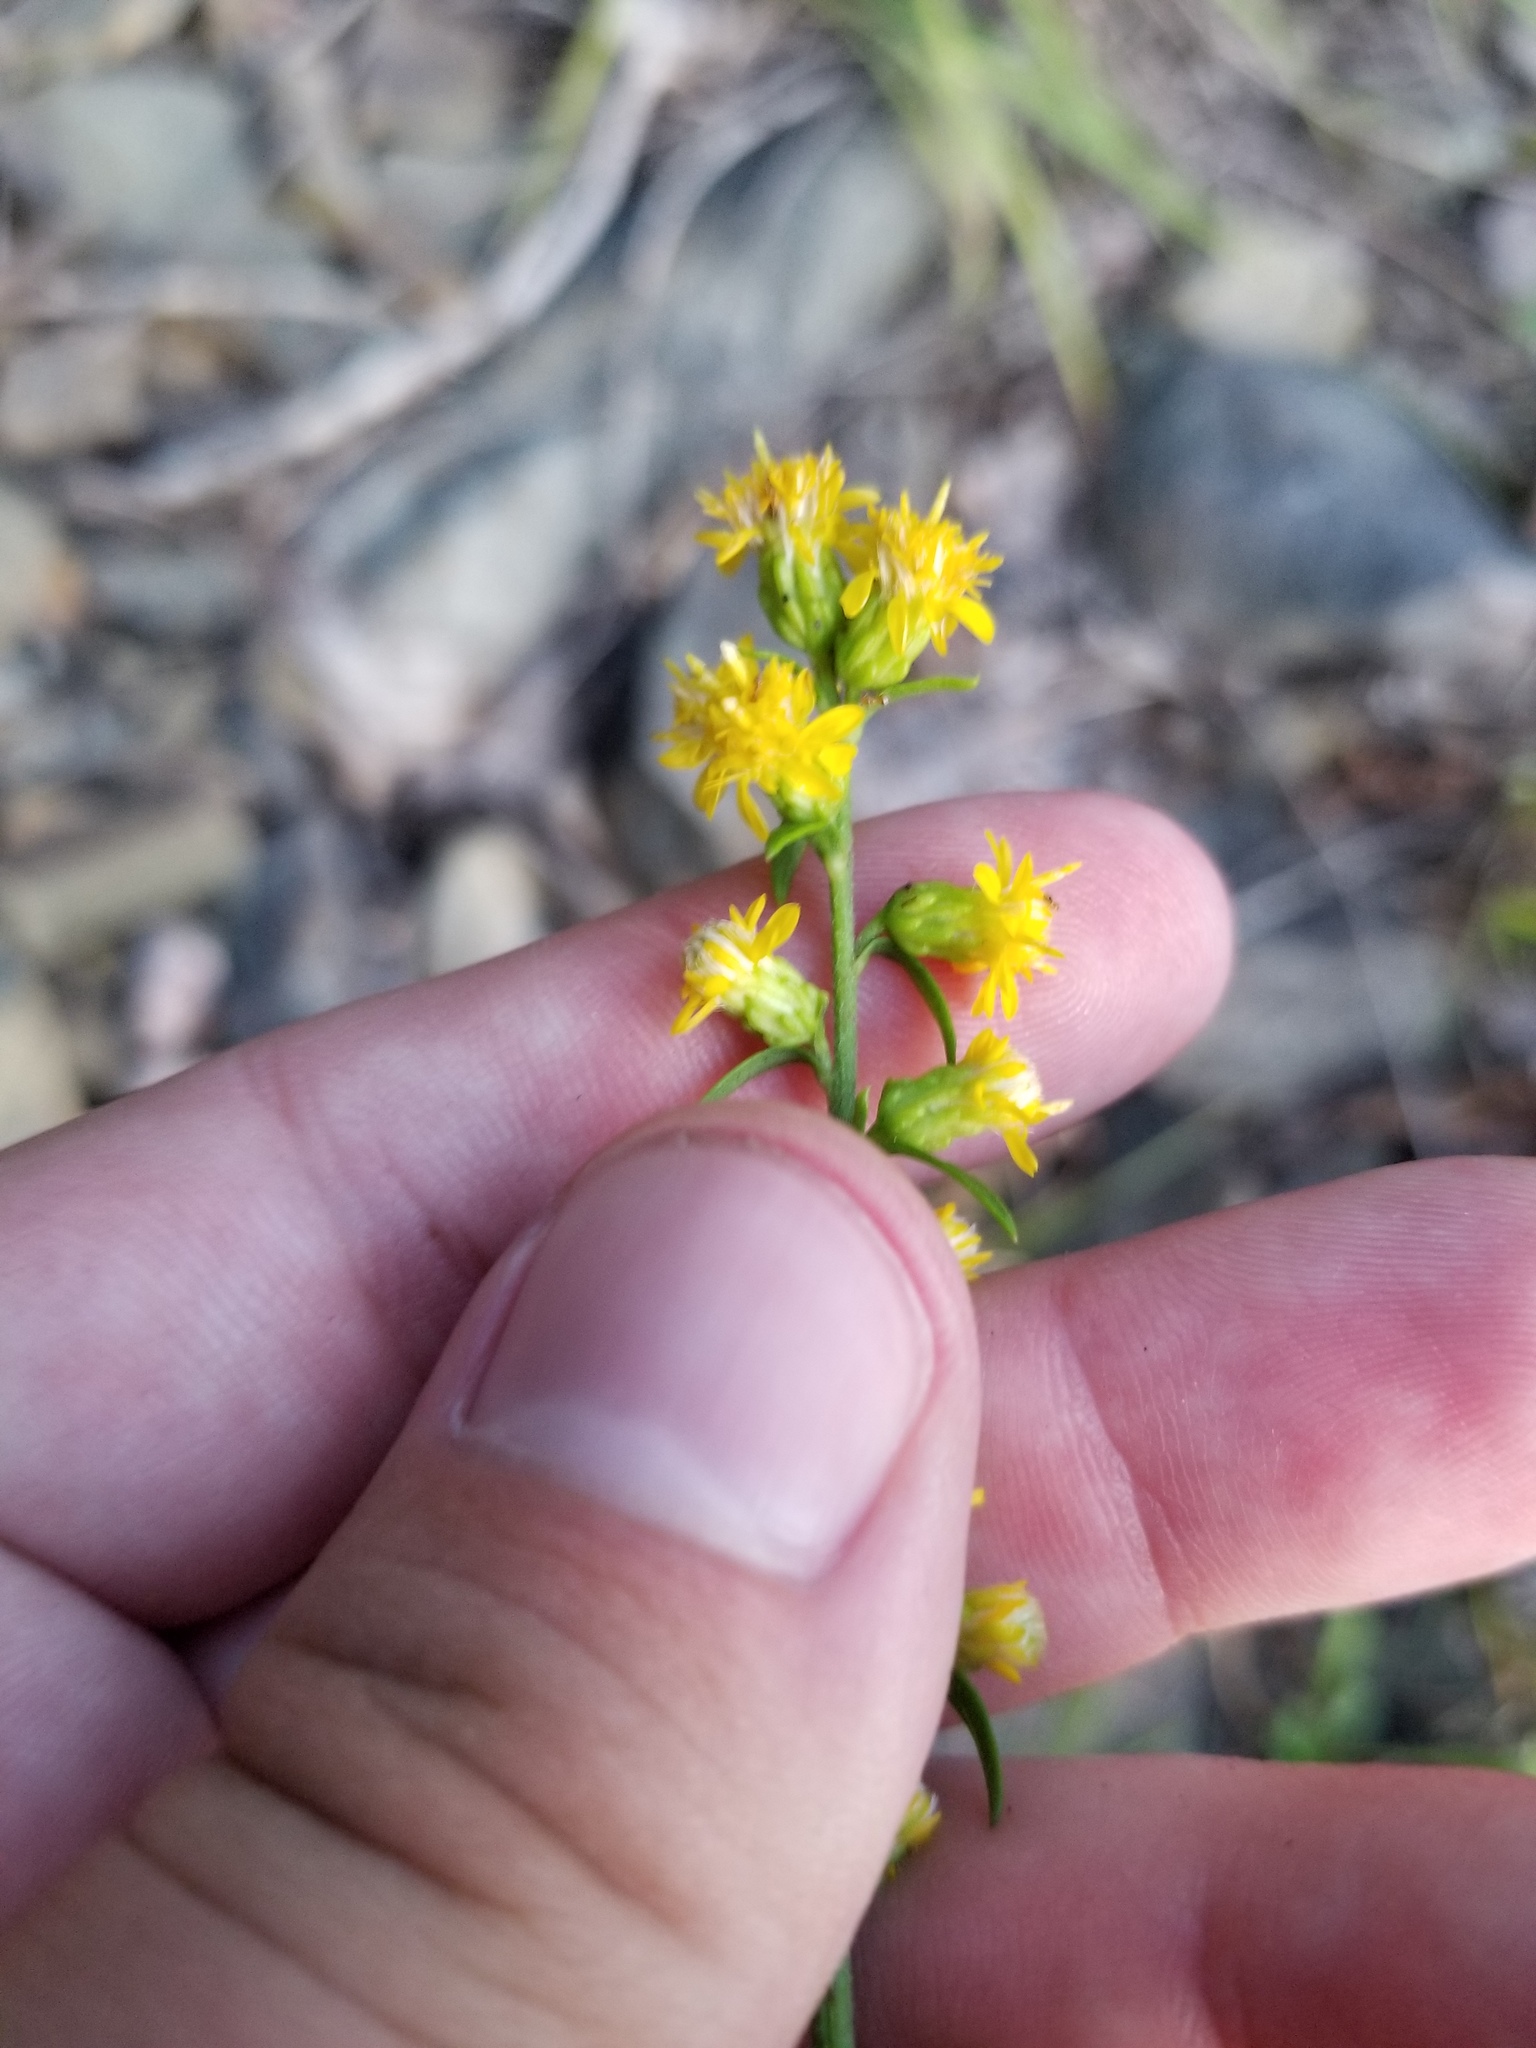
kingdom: Plantae
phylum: Tracheophyta
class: Magnoliopsida
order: Asterales
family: Asteraceae
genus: Solidago
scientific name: Solidago hispida
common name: Hairy goldenrod
